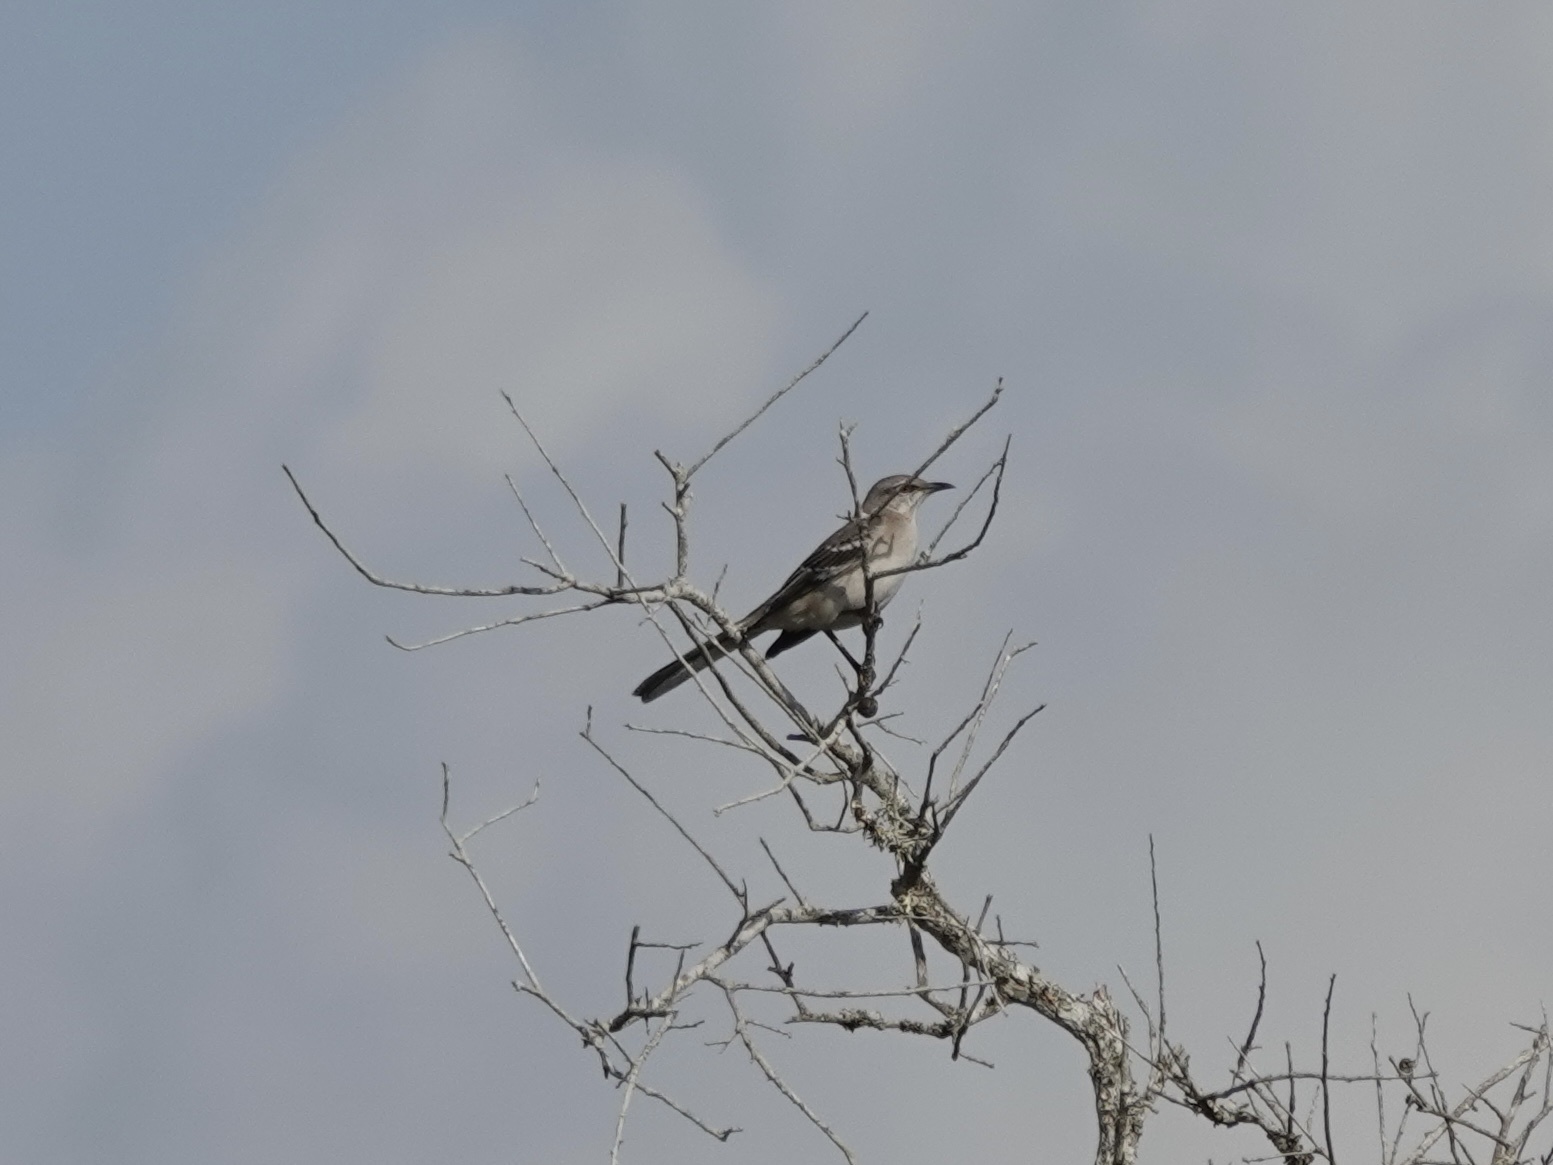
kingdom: Animalia
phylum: Chordata
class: Aves
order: Passeriformes
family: Mimidae
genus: Mimus
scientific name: Mimus polyglottos
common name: Northern mockingbird
